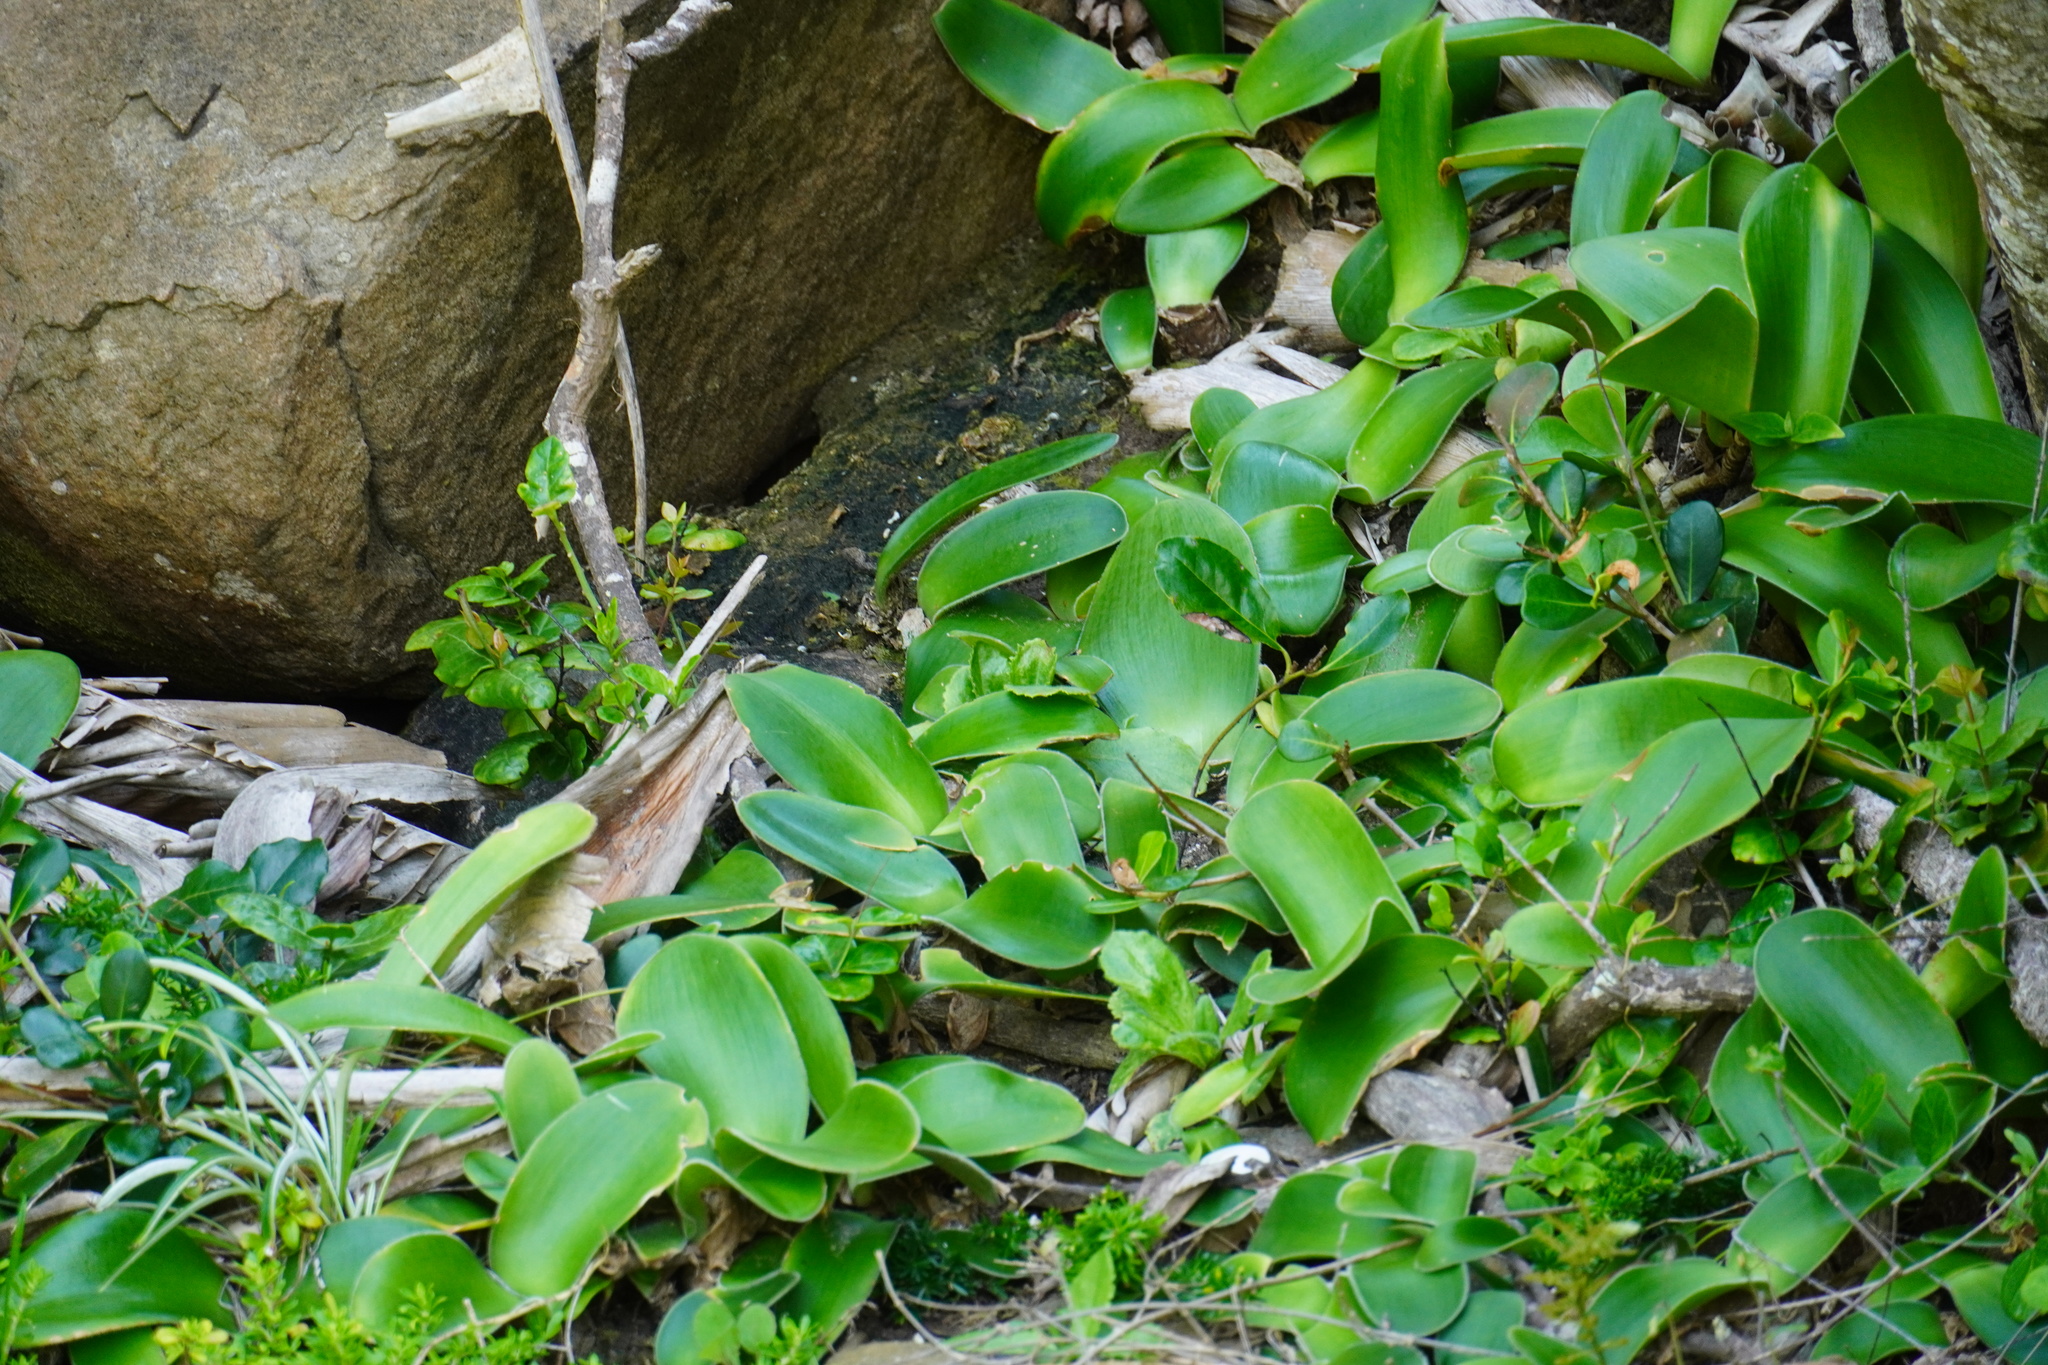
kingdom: Plantae
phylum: Tracheophyta
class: Liliopsida
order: Asparagales
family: Amaryllidaceae
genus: Haemanthus
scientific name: Haemanthus albiflos
